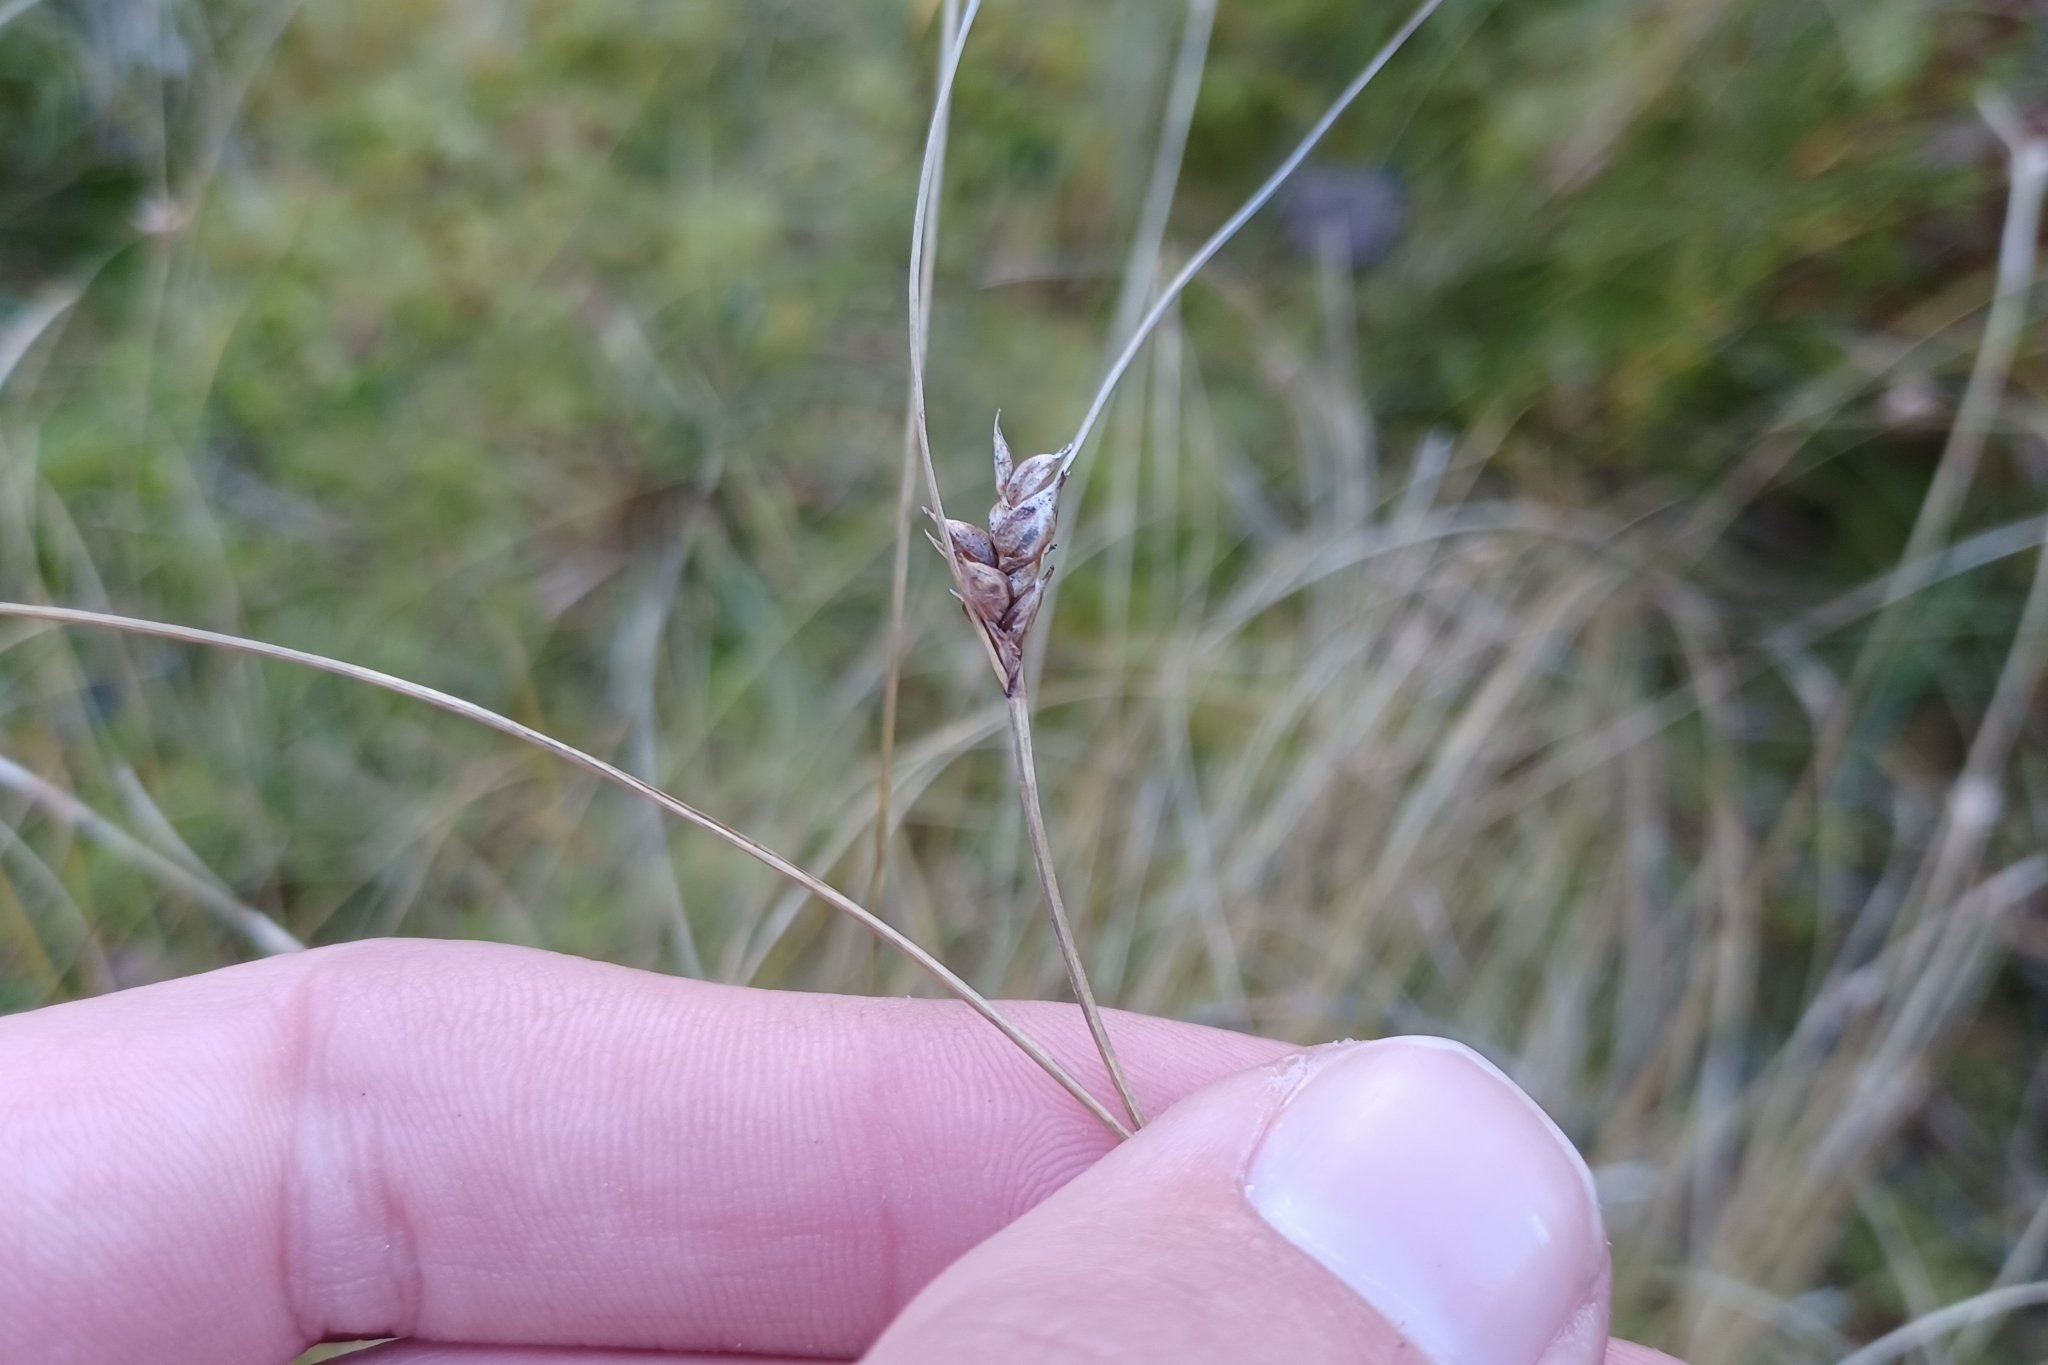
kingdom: Plantae
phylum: Tracheophyta
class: Liliopsida
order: Poales
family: Cyperaceae
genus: Carex
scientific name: Carex oligosperma
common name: Few-seed sedge
